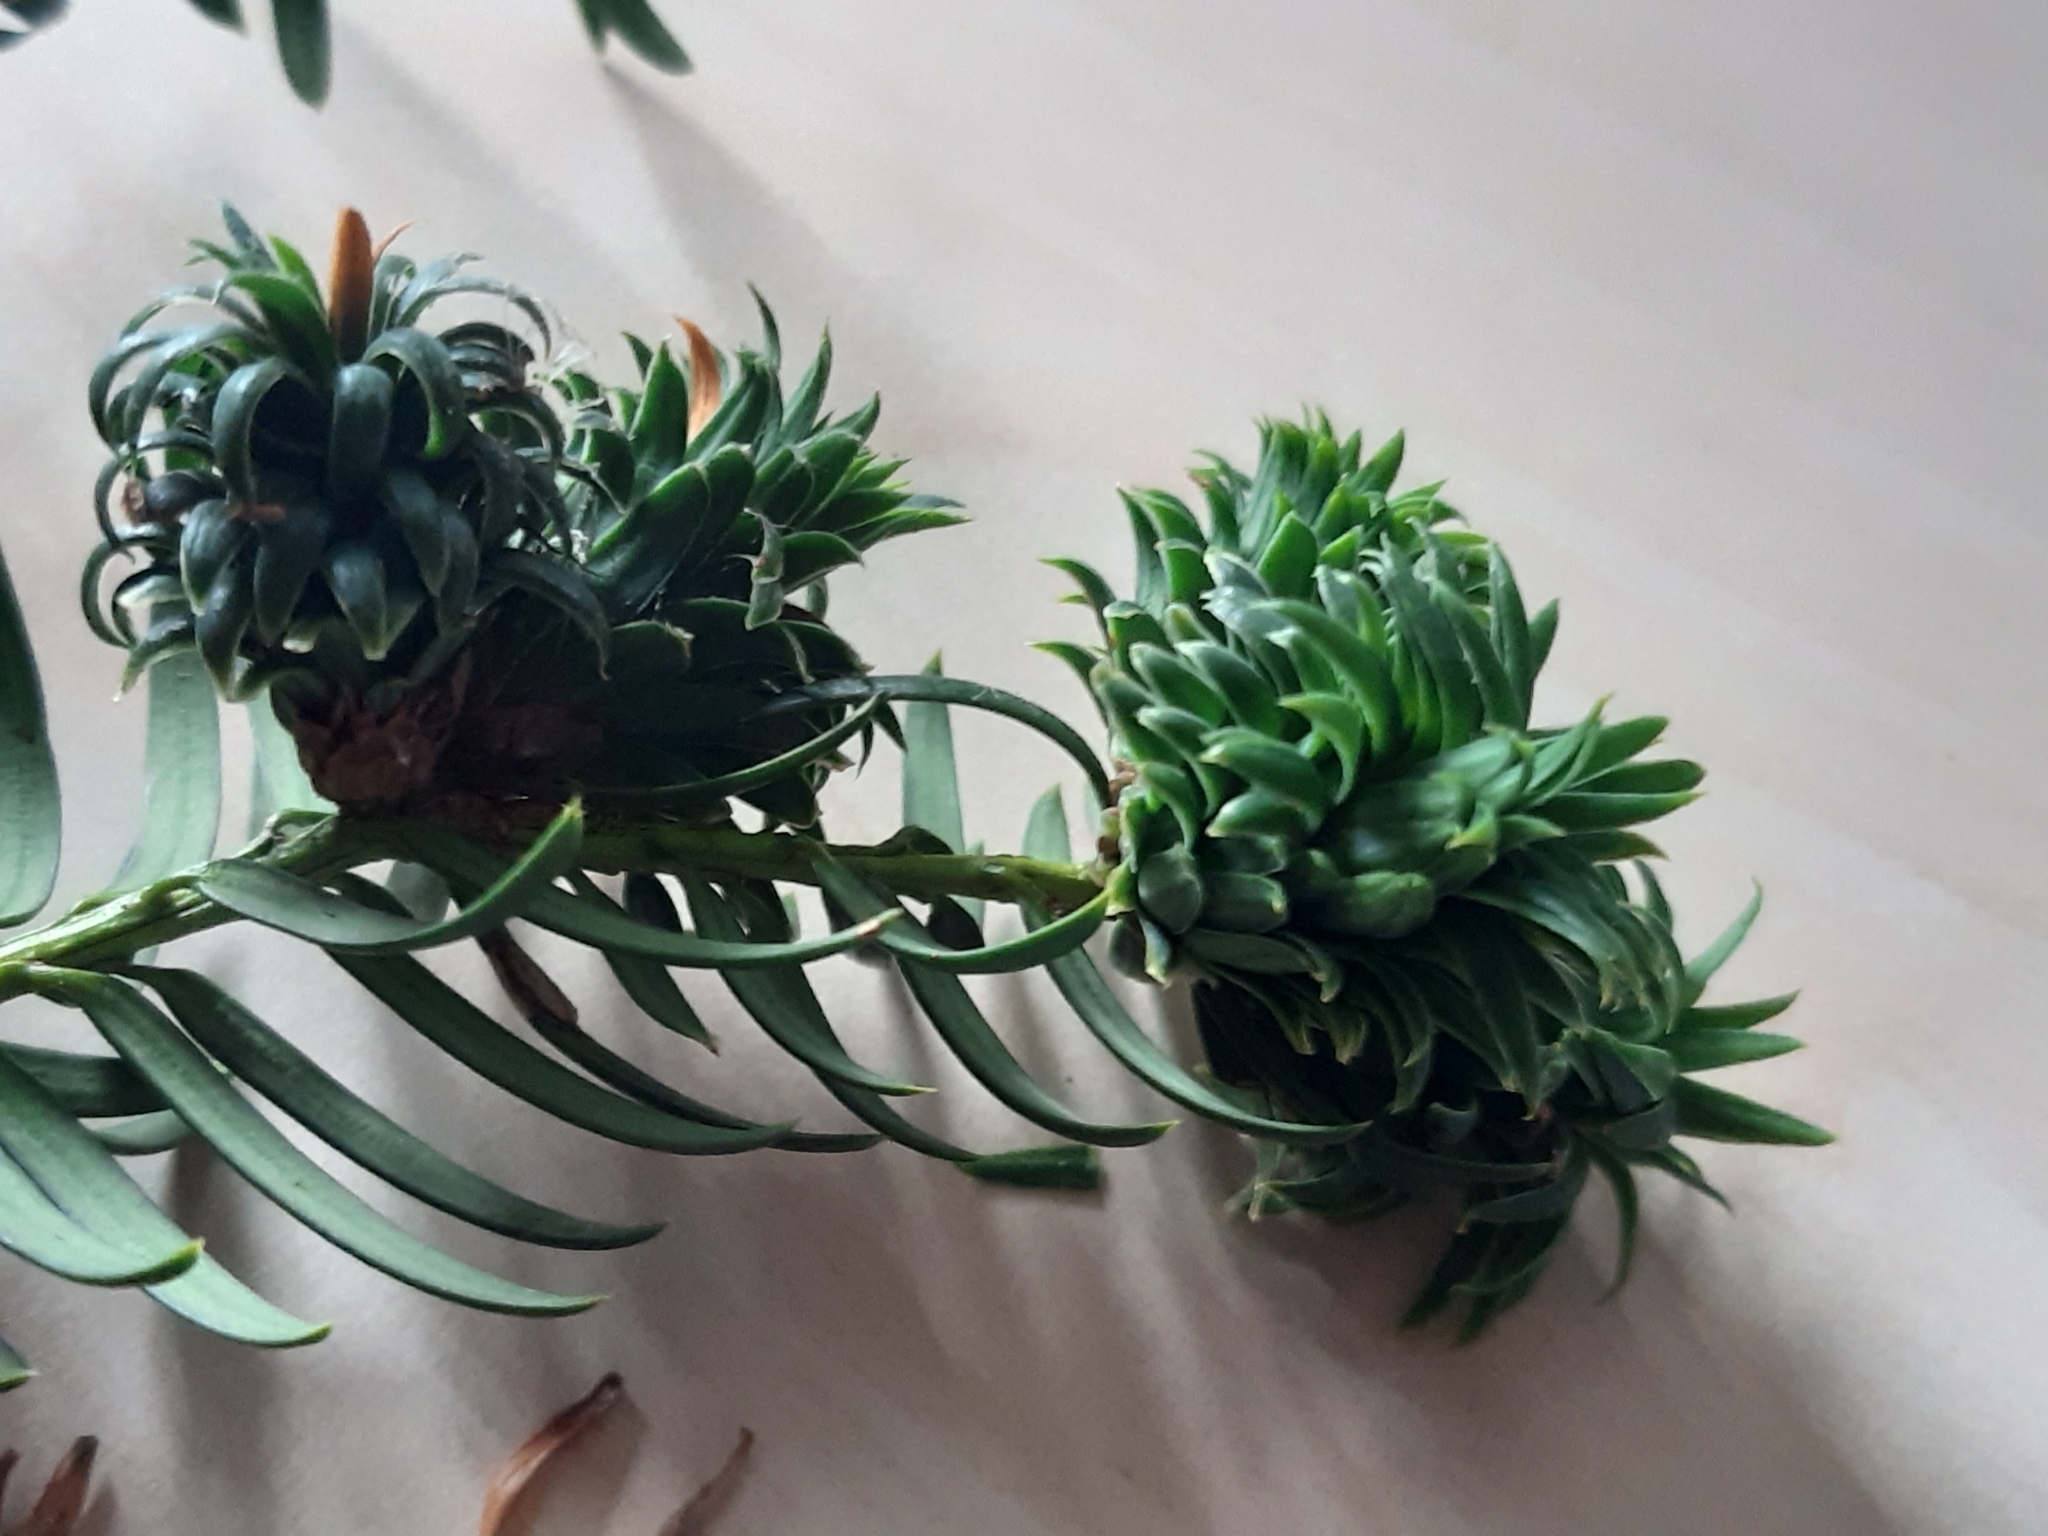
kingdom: Animalia
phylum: Arthropoda
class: Insecta
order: Diptera
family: Cecidomyiidae
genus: Taxomyia
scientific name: Taxomyia taxi
